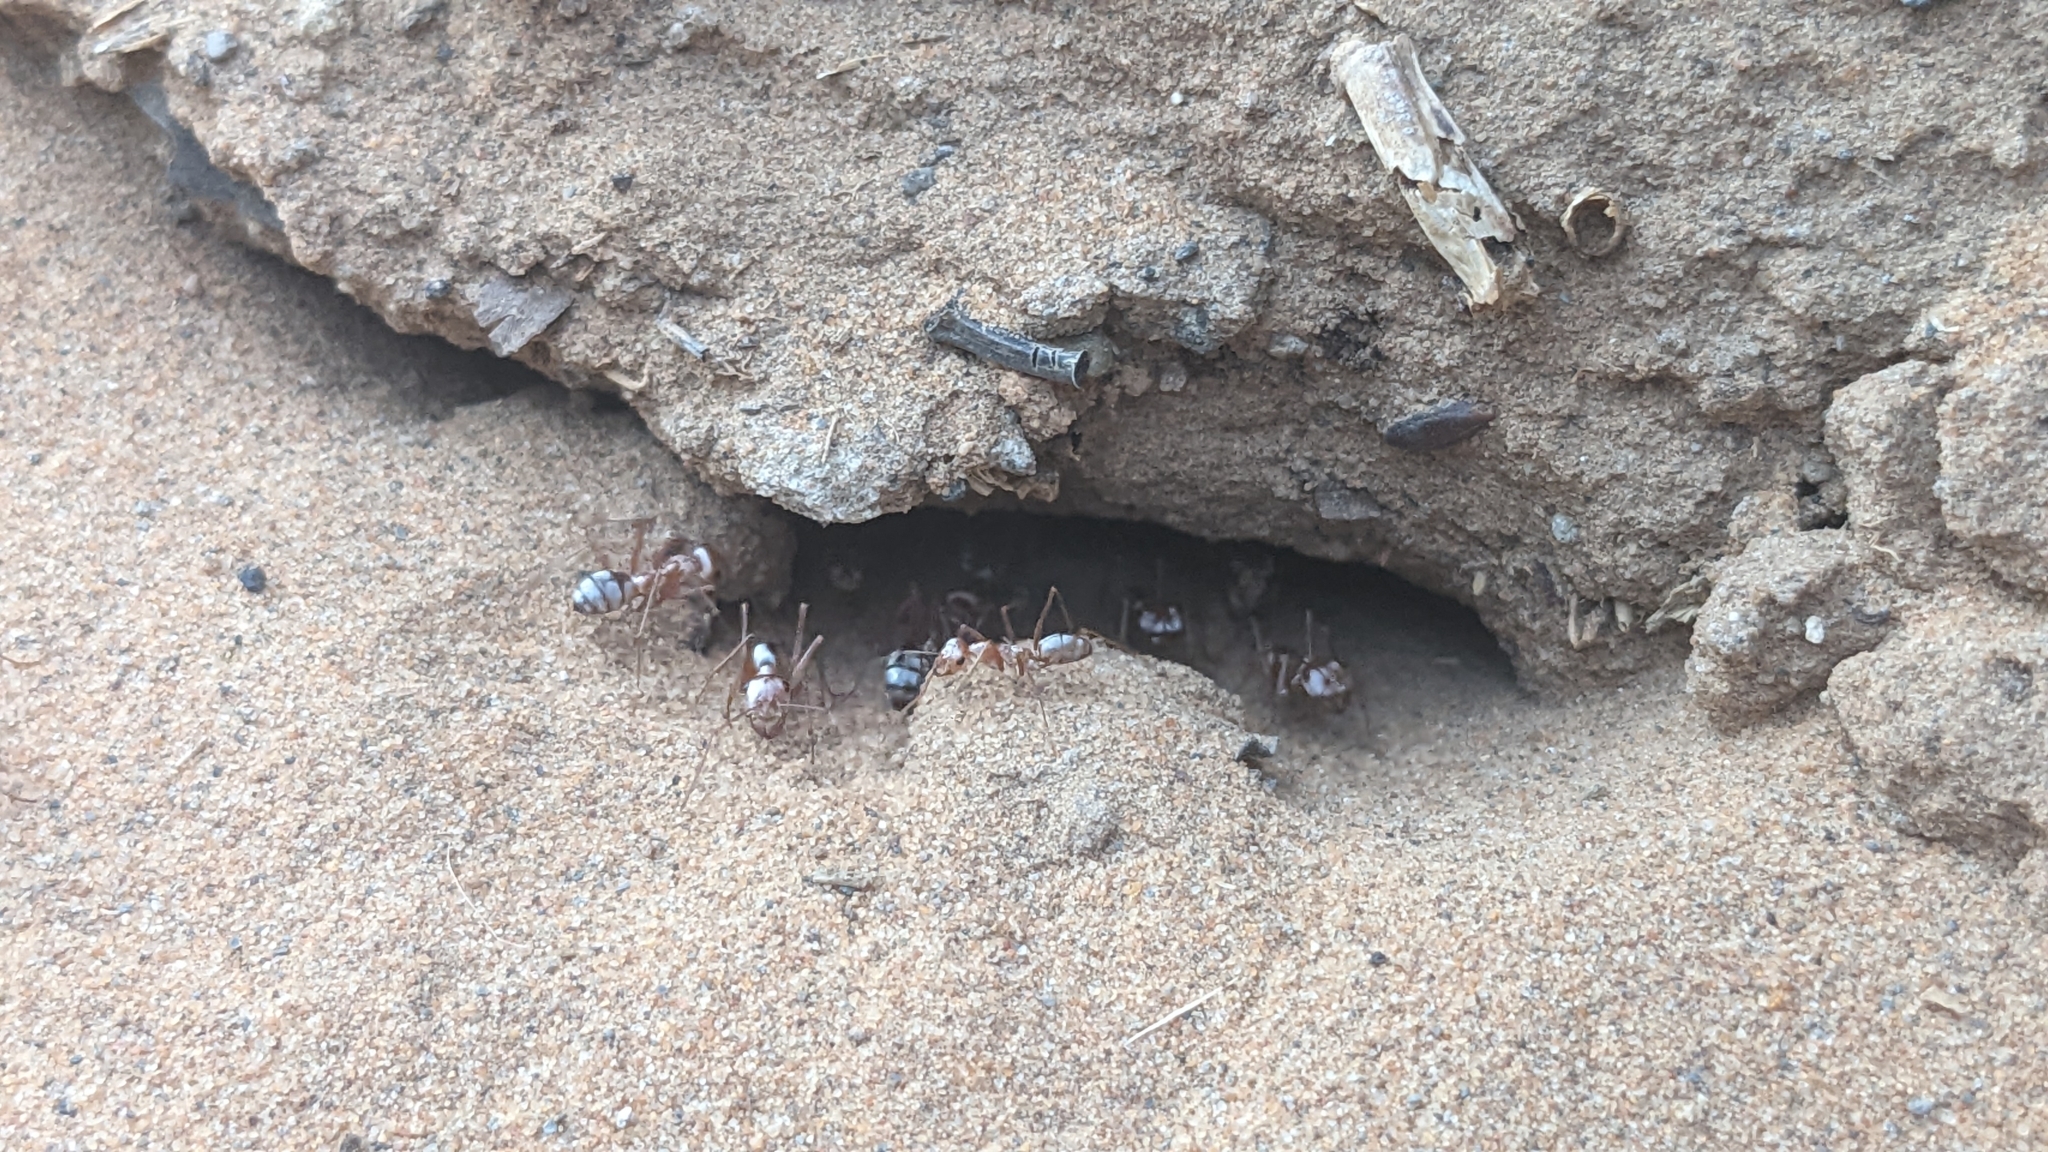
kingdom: Animalia
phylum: Arthropoda
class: Insecta
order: Hymenoptera
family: Formicidae
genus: Cataglyphis
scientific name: Cataglyphis bombycinus
